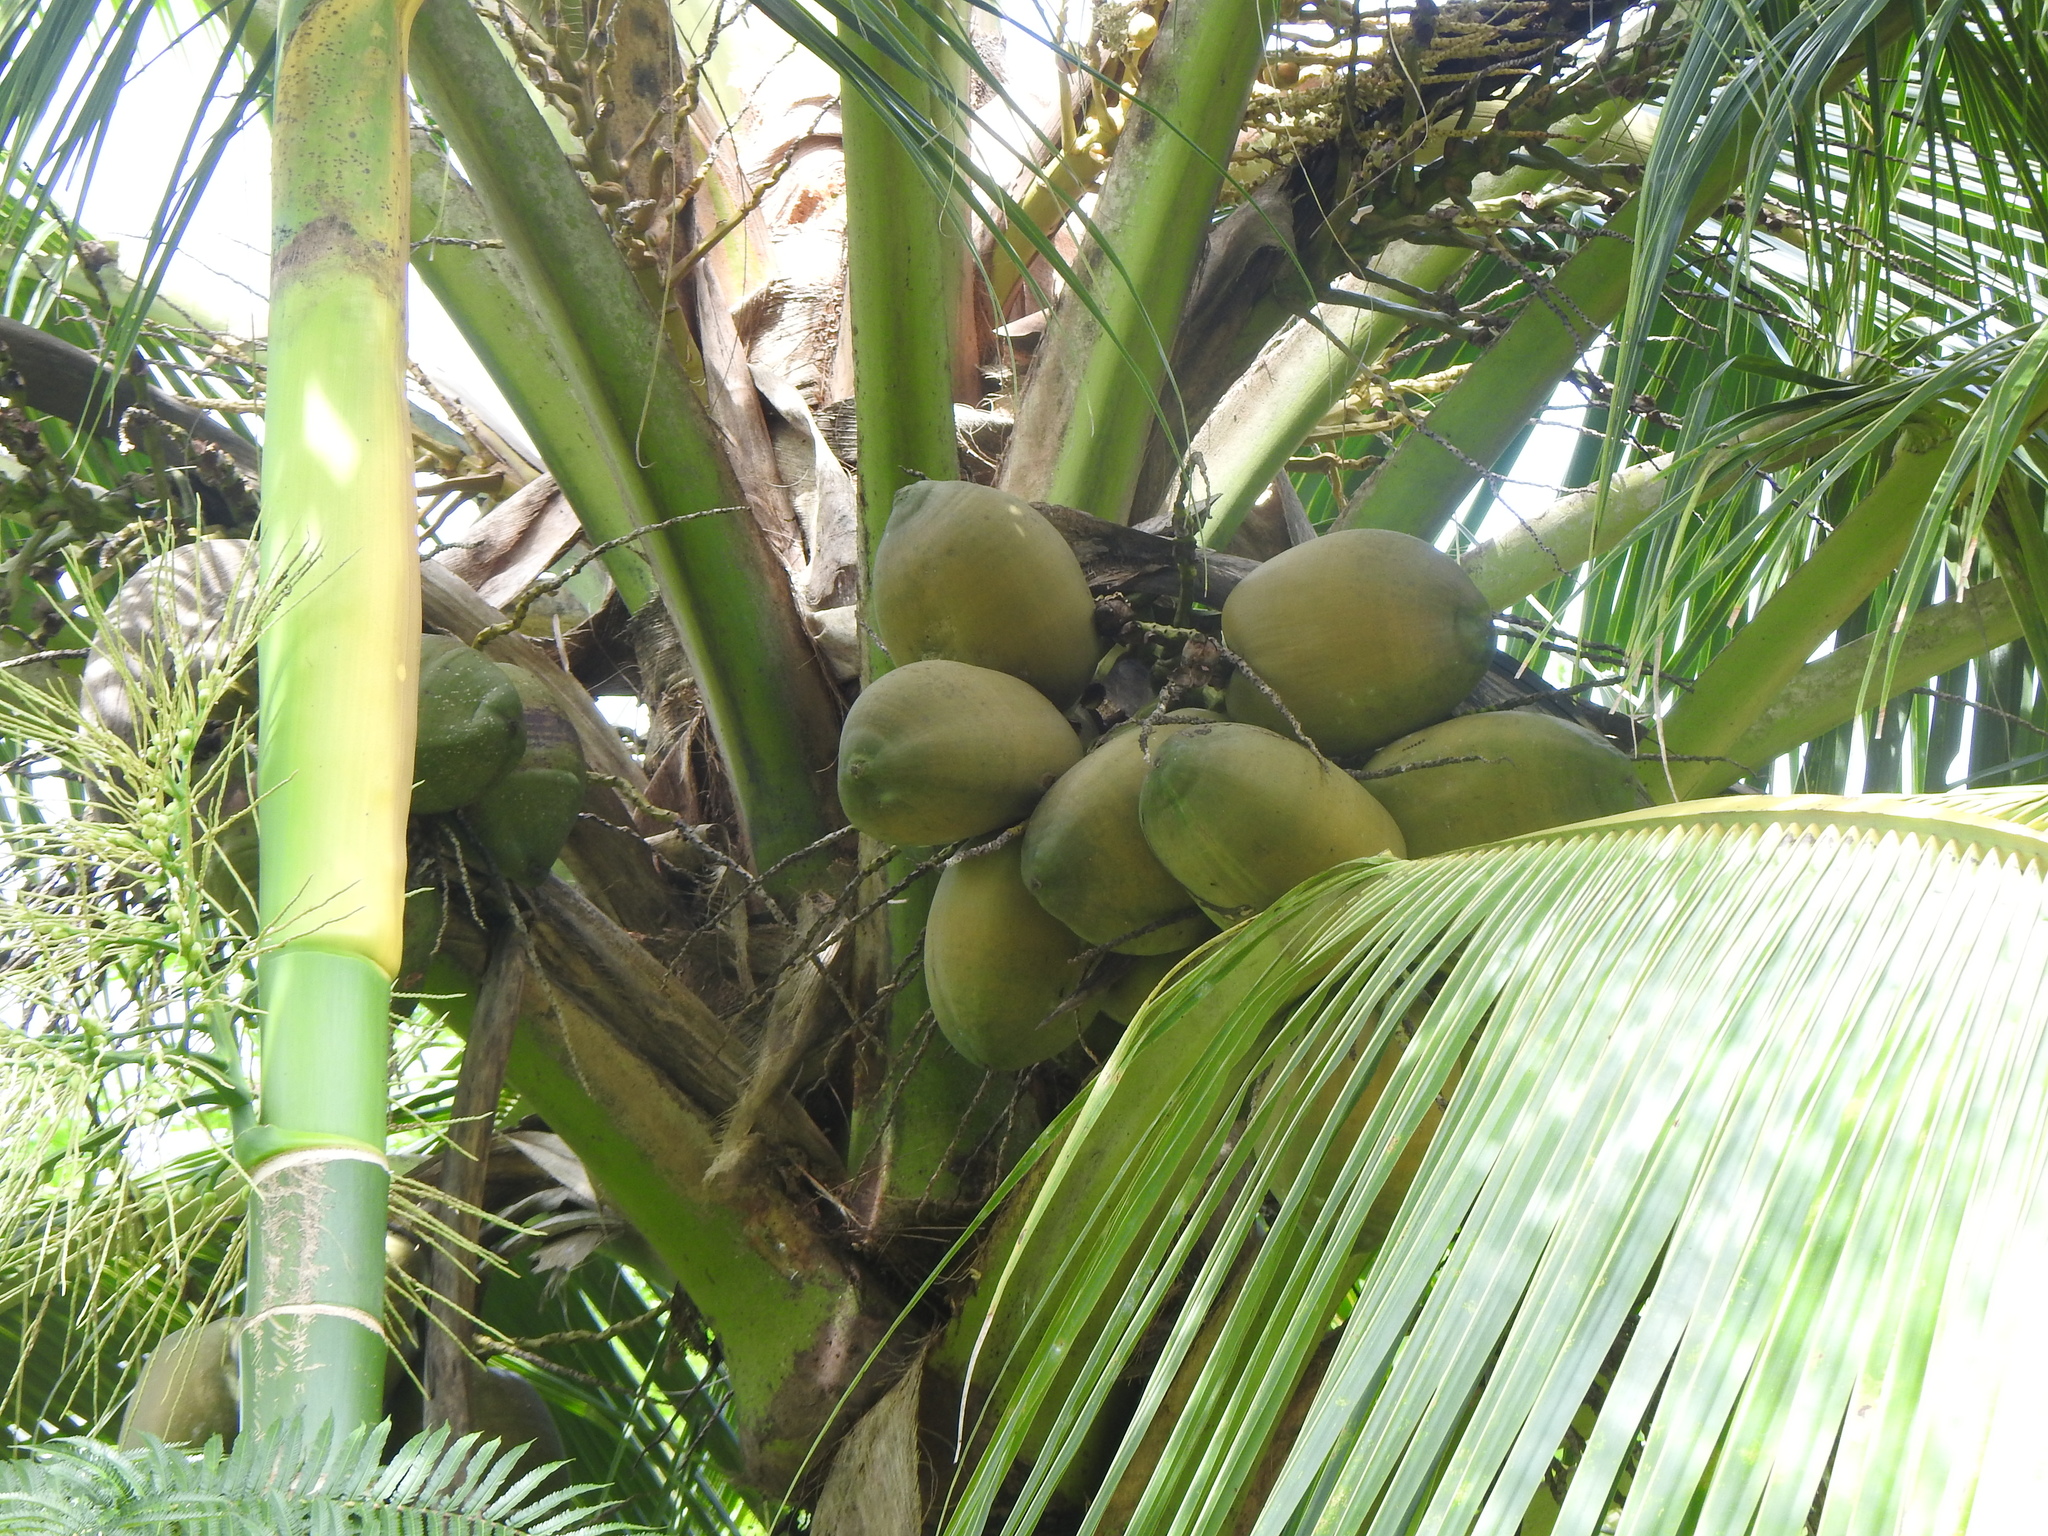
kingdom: Plantae
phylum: Tracheophyta
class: Liliopsida
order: Arecales
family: Arecaceae
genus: Cocos
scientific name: Cocos nucifera
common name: Coconut palm
